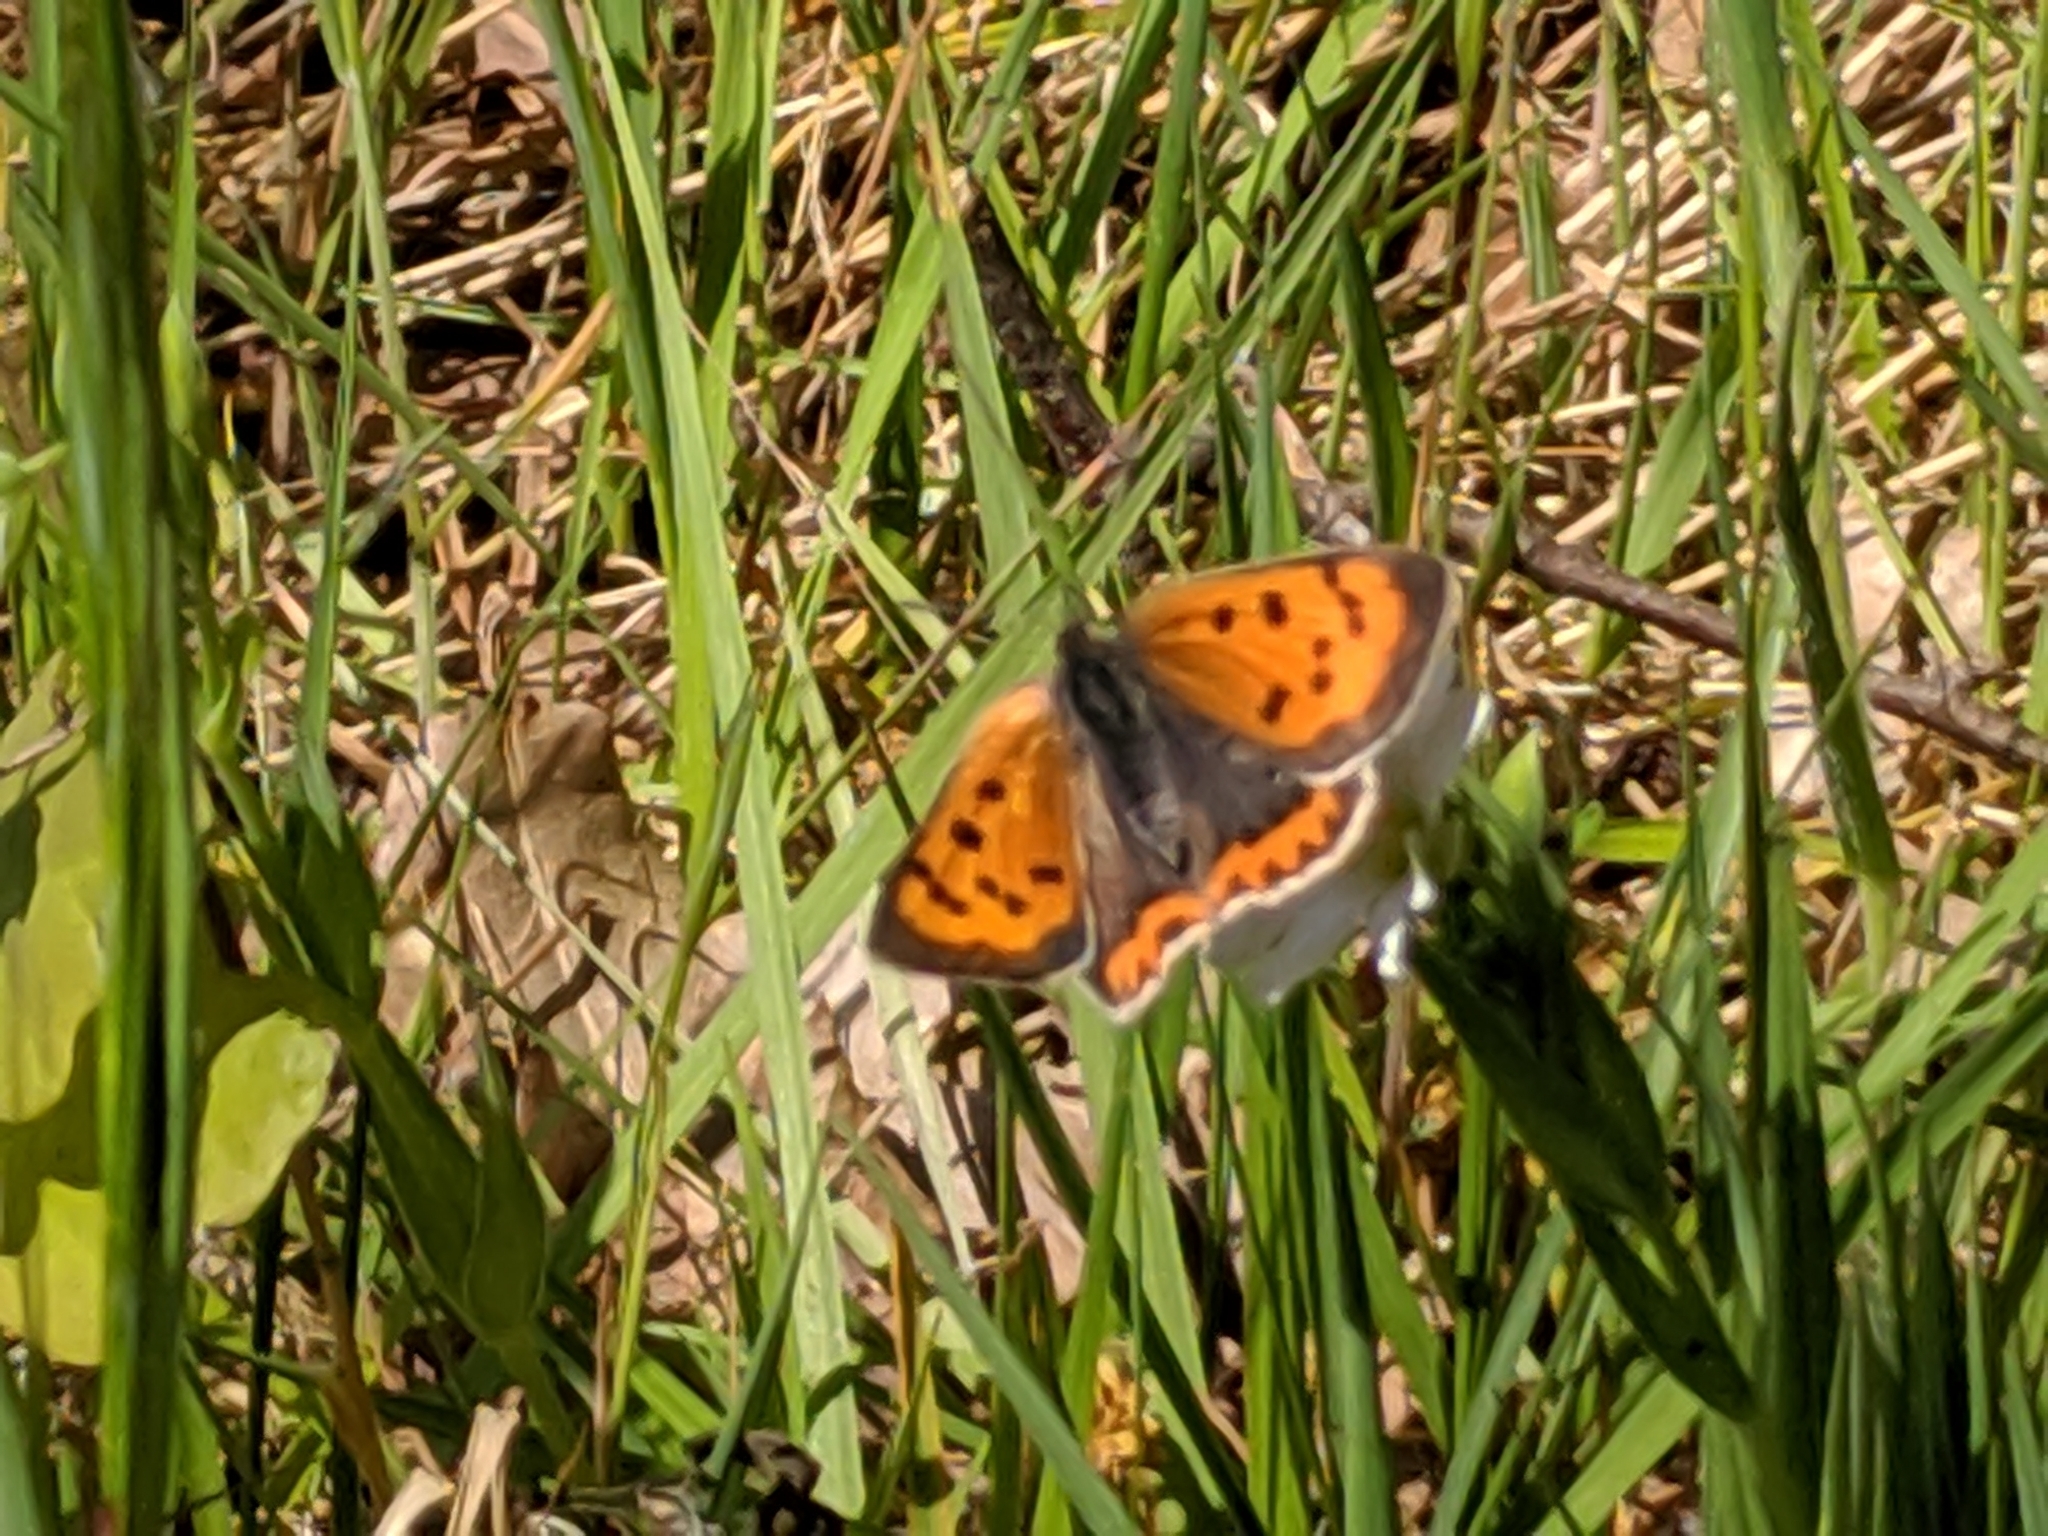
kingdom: Animalia
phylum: Arthropoda
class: Insecta
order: Lepidoptera
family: Lycaenidae
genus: Lycaena
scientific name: Lycaena phlaeas
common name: Small copper
